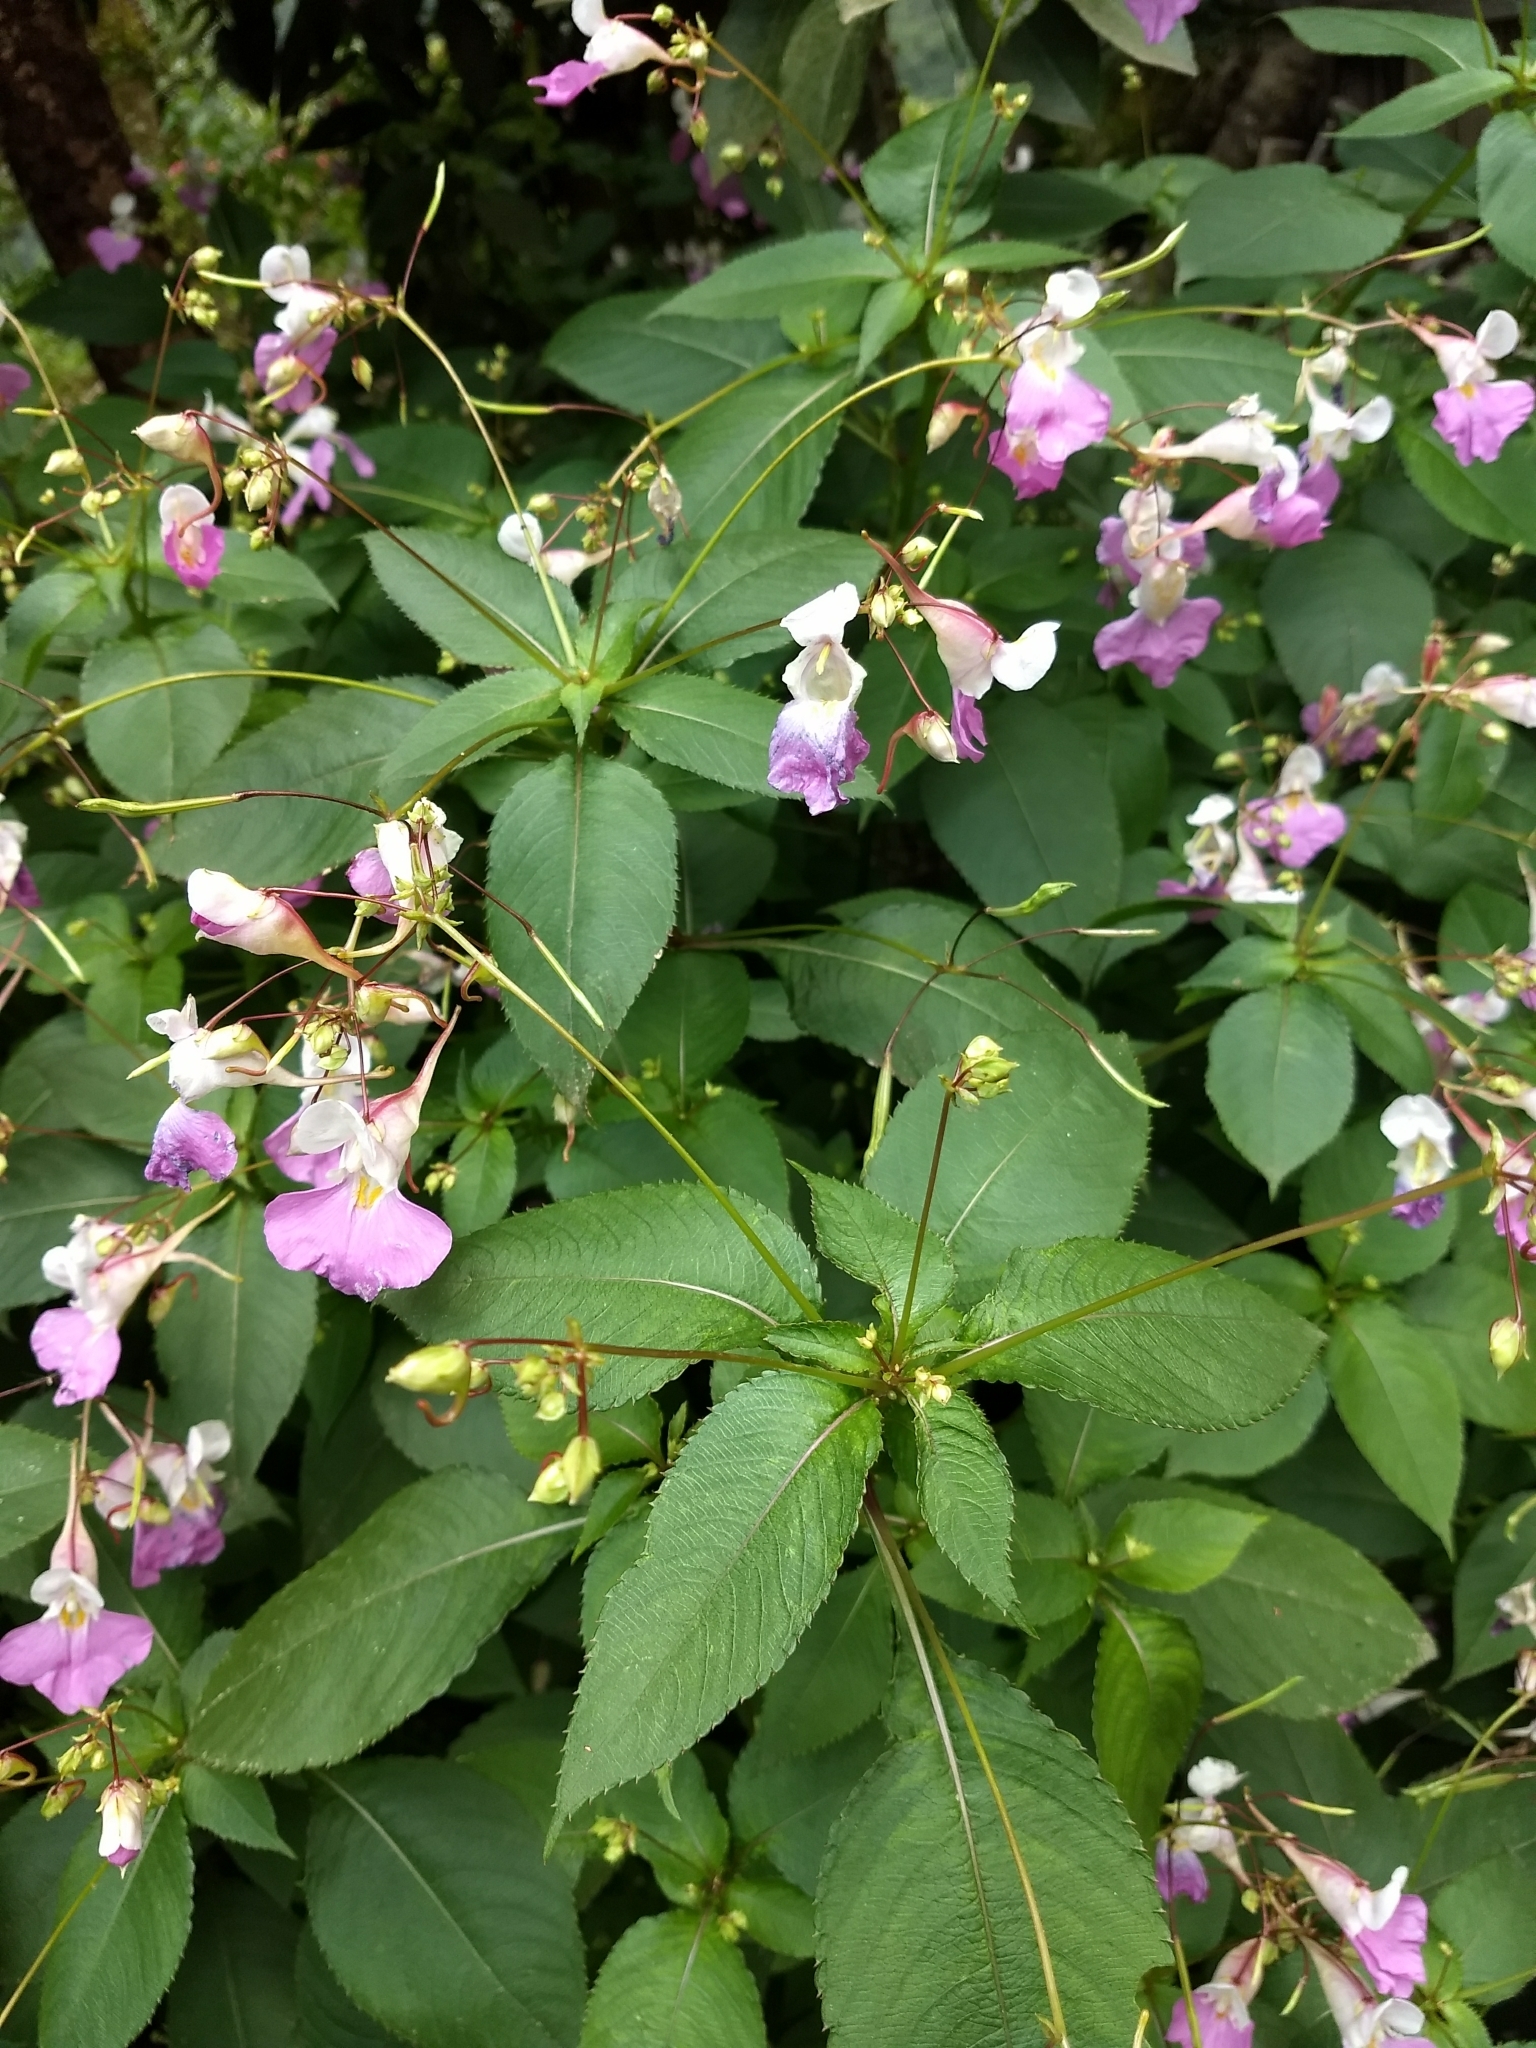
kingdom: Plantae
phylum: Tracheophyta
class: Magnoliopsida
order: Ericales
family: Balsaminaceae
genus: Impatiens
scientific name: Impatiens balfourii
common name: Balfour's touch-me-not
